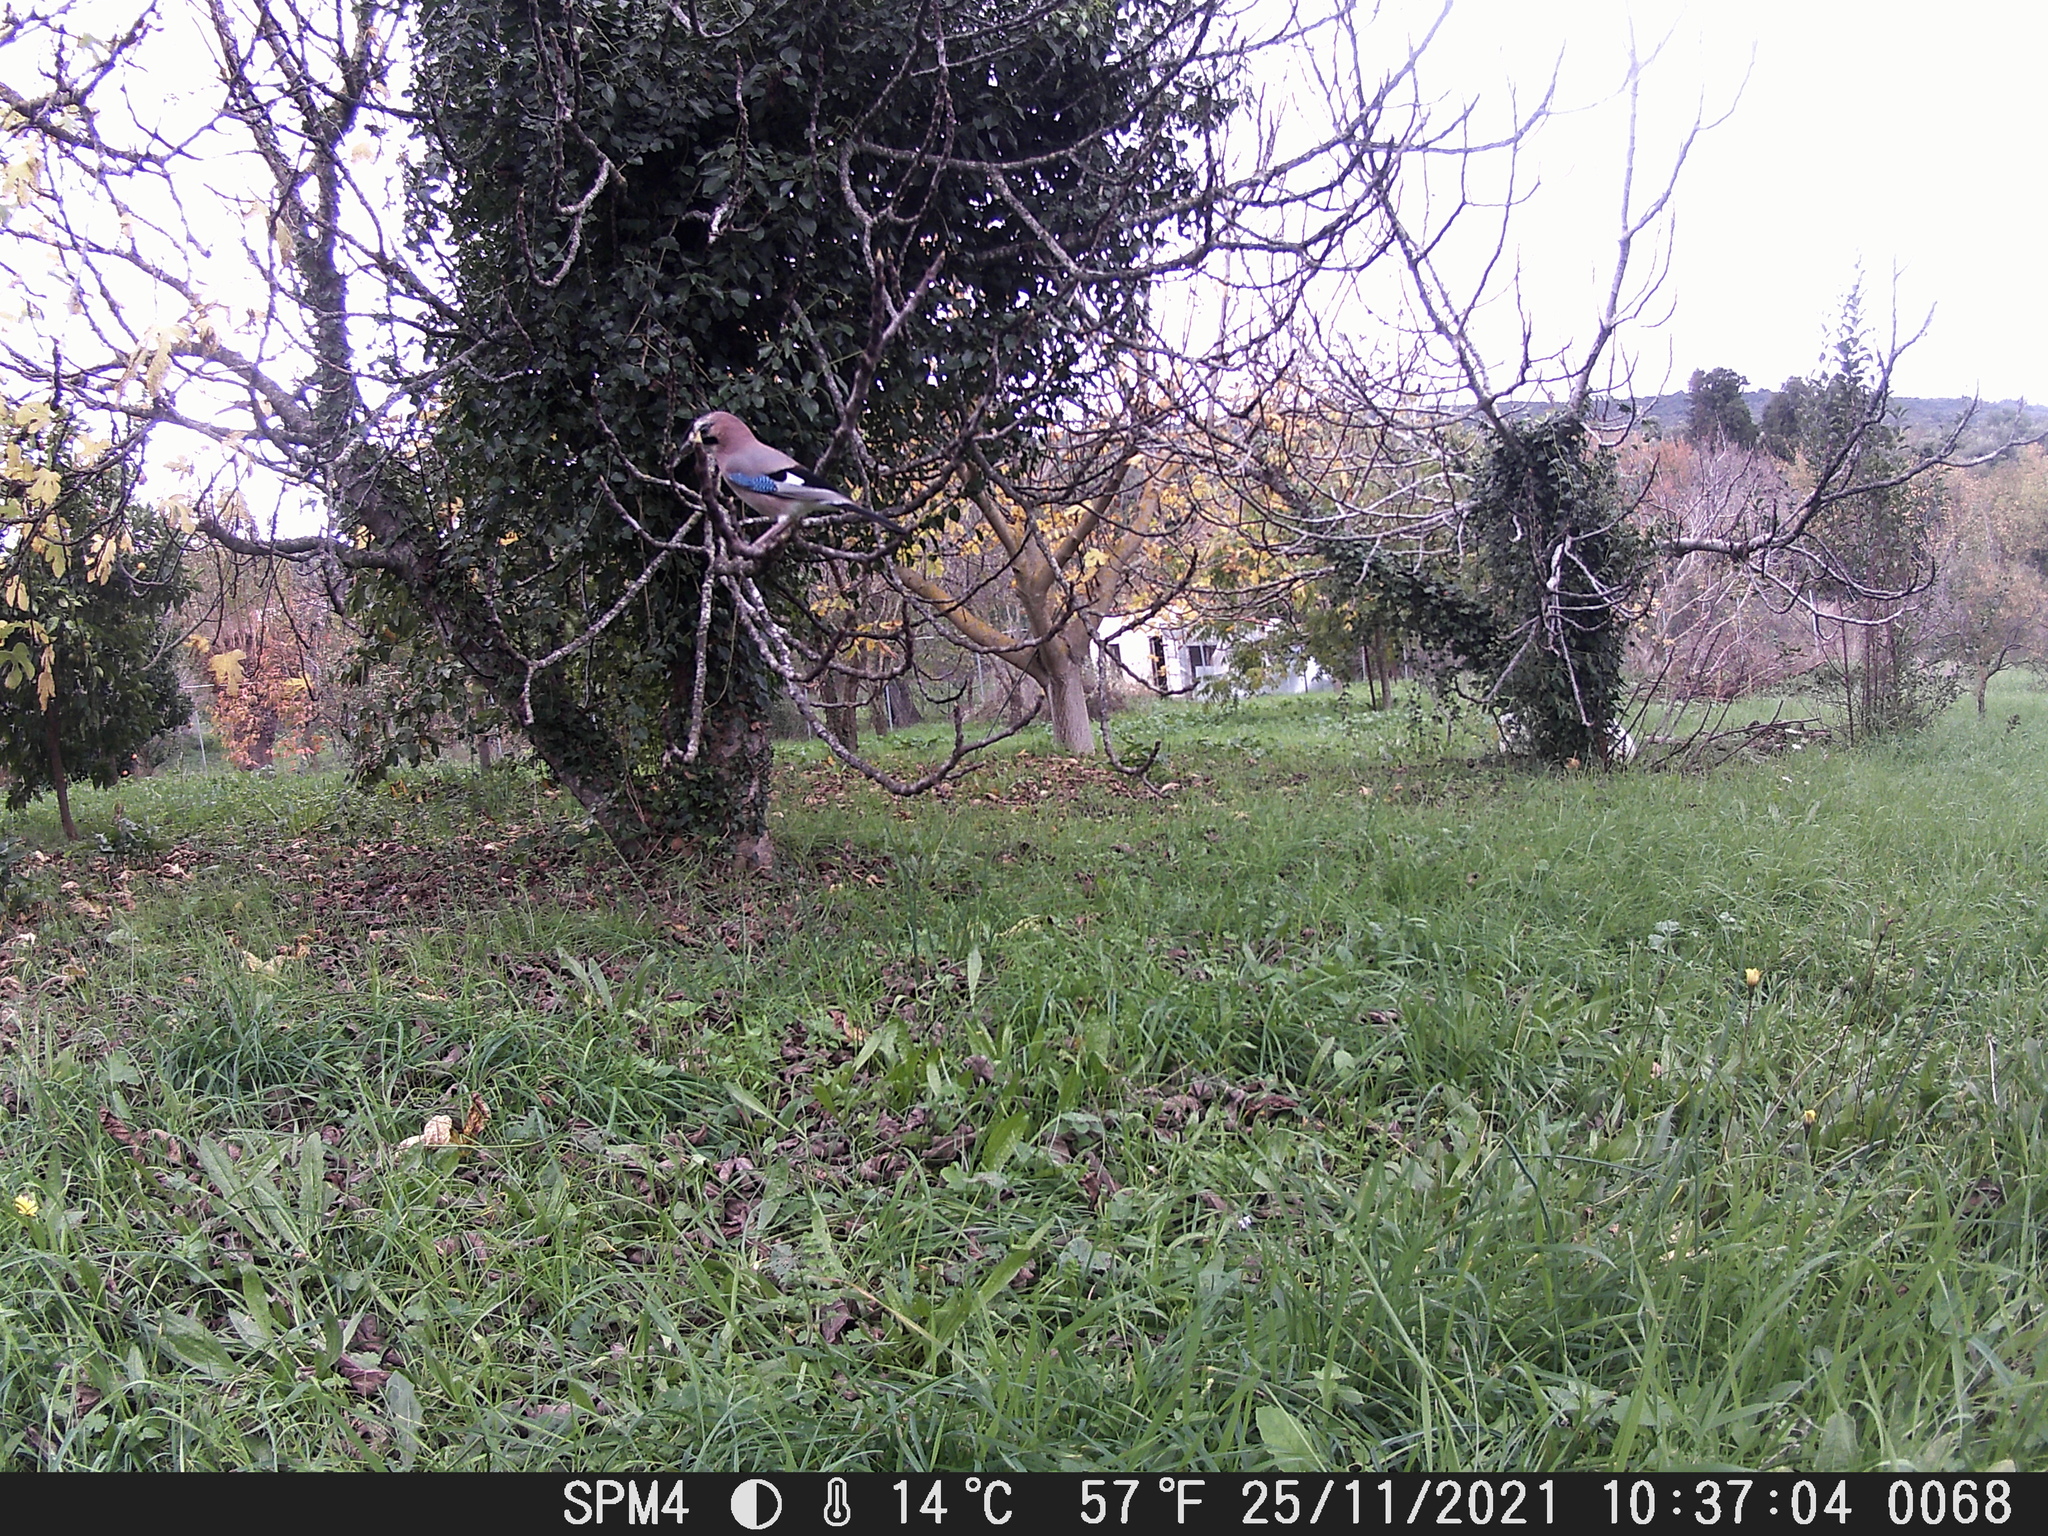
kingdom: Animalia
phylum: Chordata
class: Aves
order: Passeriformes
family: Corvidae
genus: Garrulus
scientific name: Garrulus glandarius
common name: Eurasian jay
